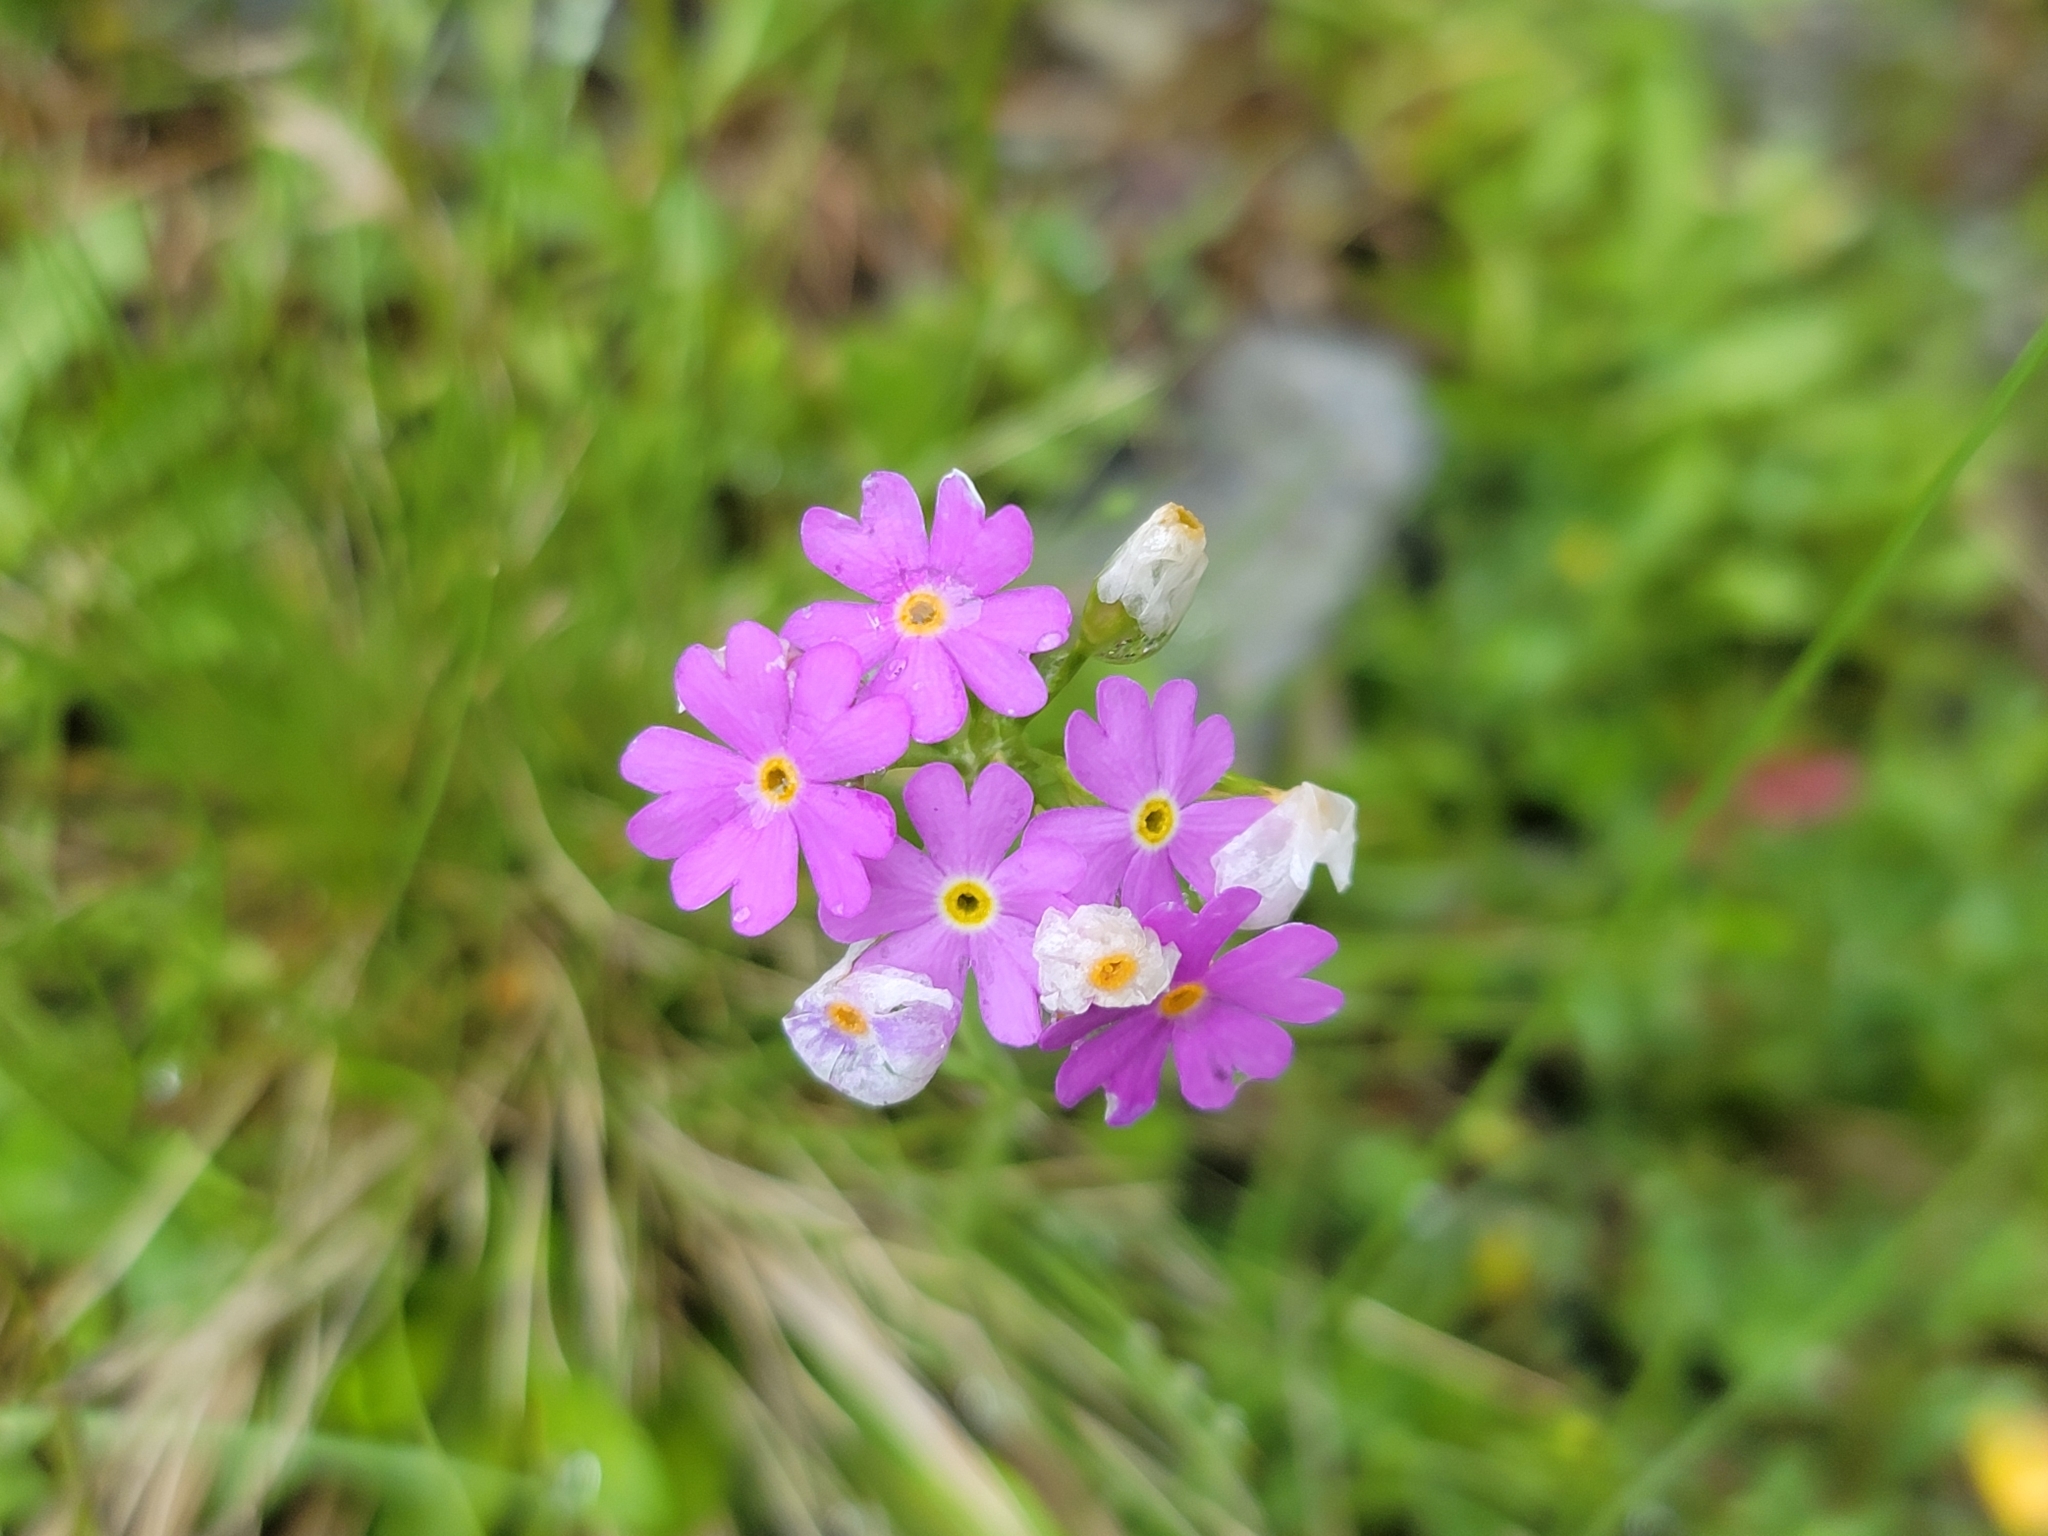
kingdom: Plantae
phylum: Tracheophyta
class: Magnoliopsida
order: Ericales
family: Primulaceae
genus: Primula
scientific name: Primula farinosa
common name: Bird's-eye primrose
